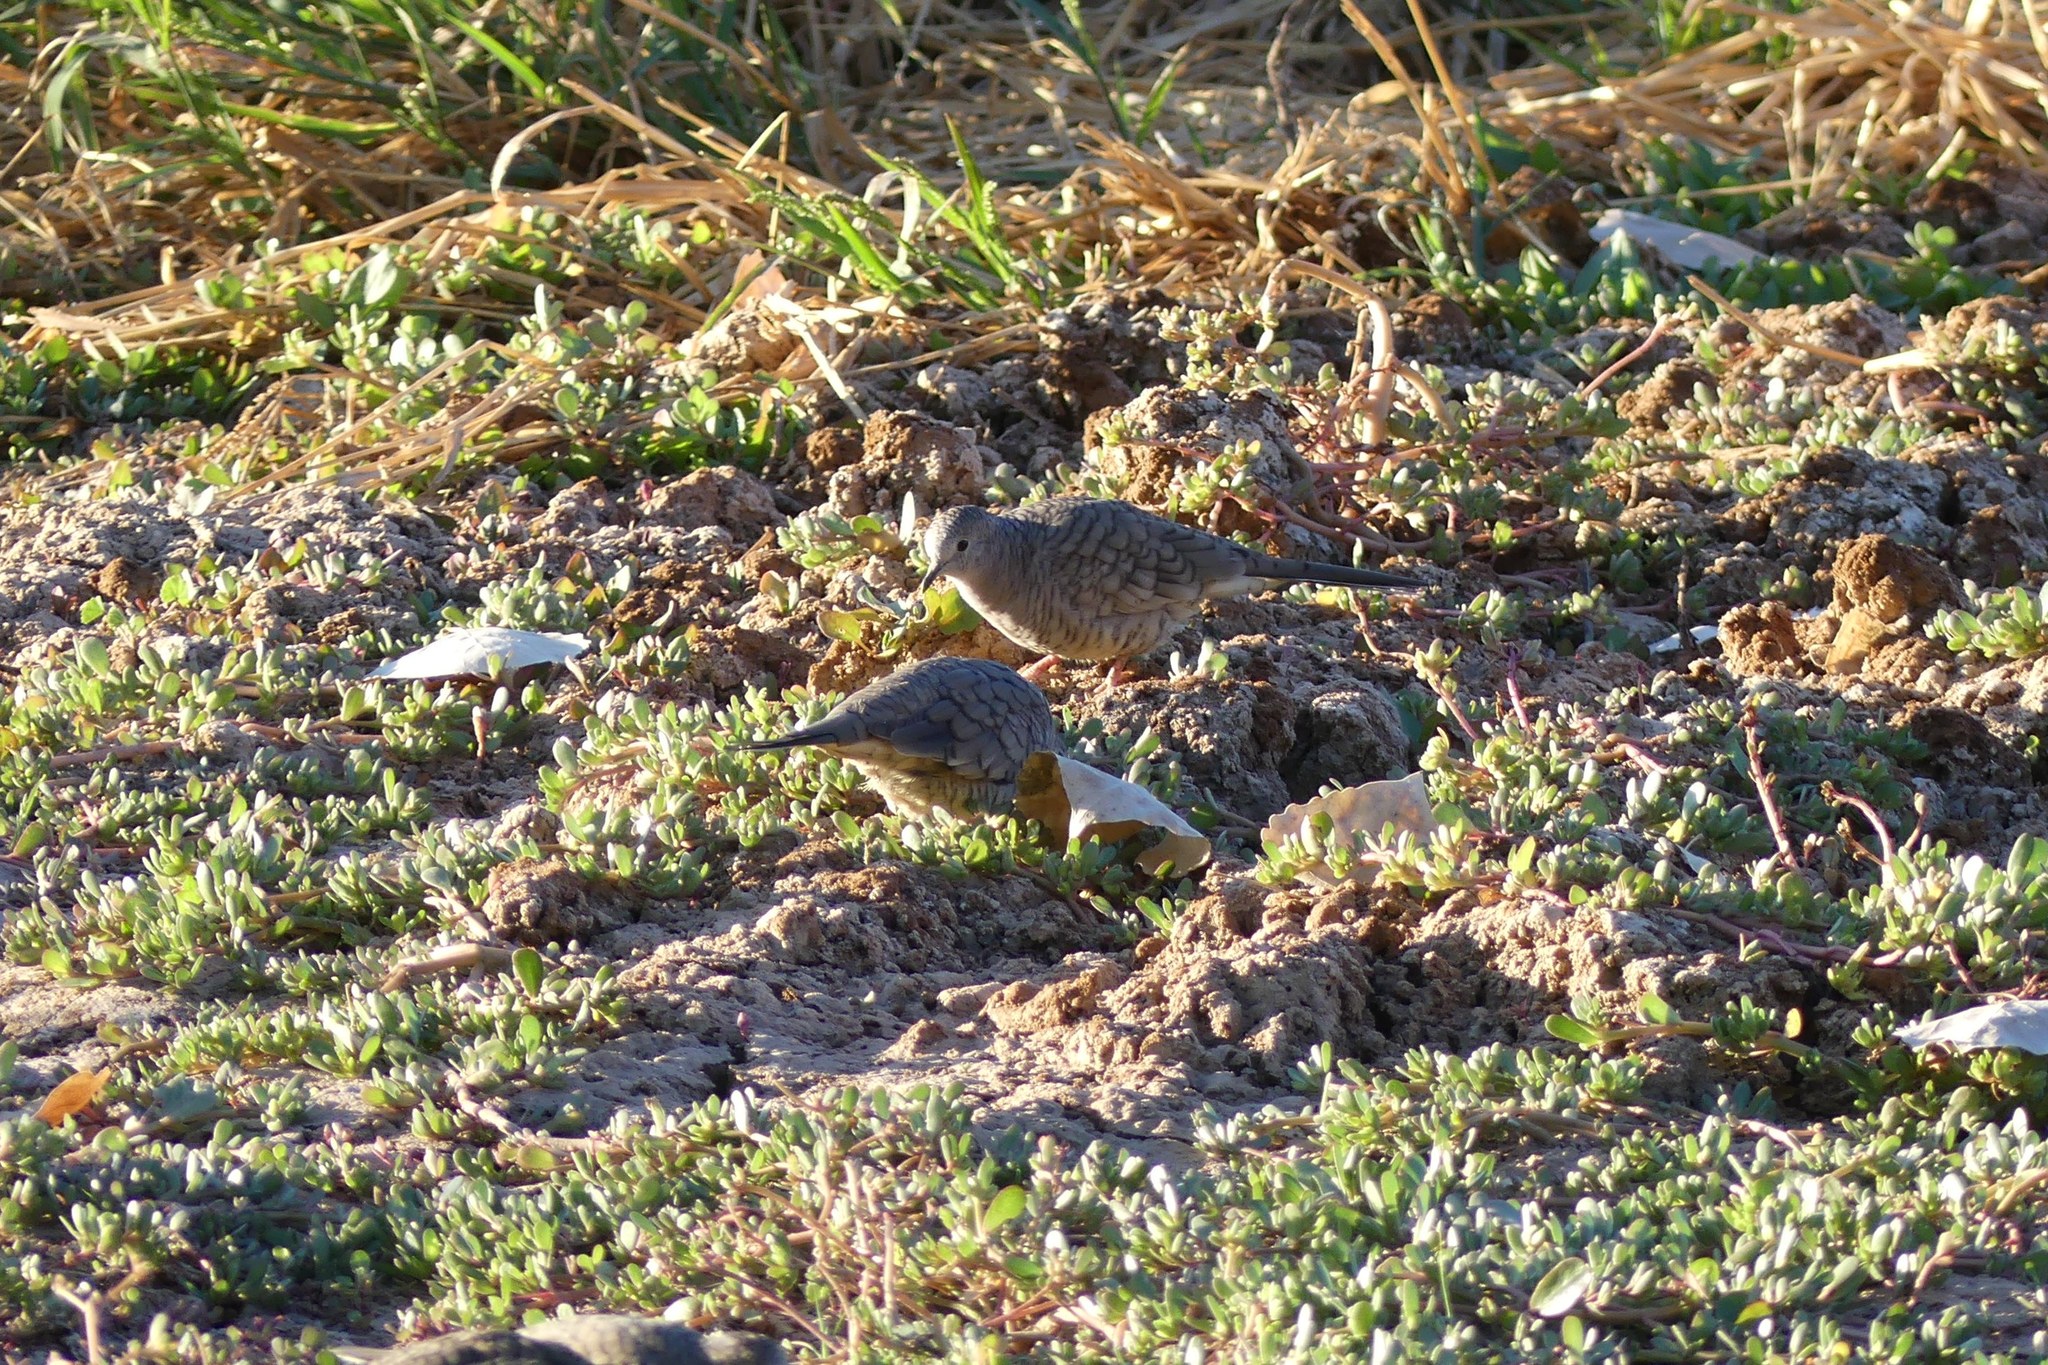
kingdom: Animalia
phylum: Chordata
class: Aves
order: Columbiformes
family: Columbidae
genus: Columbina
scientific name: Columbina inca
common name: Inca dove
